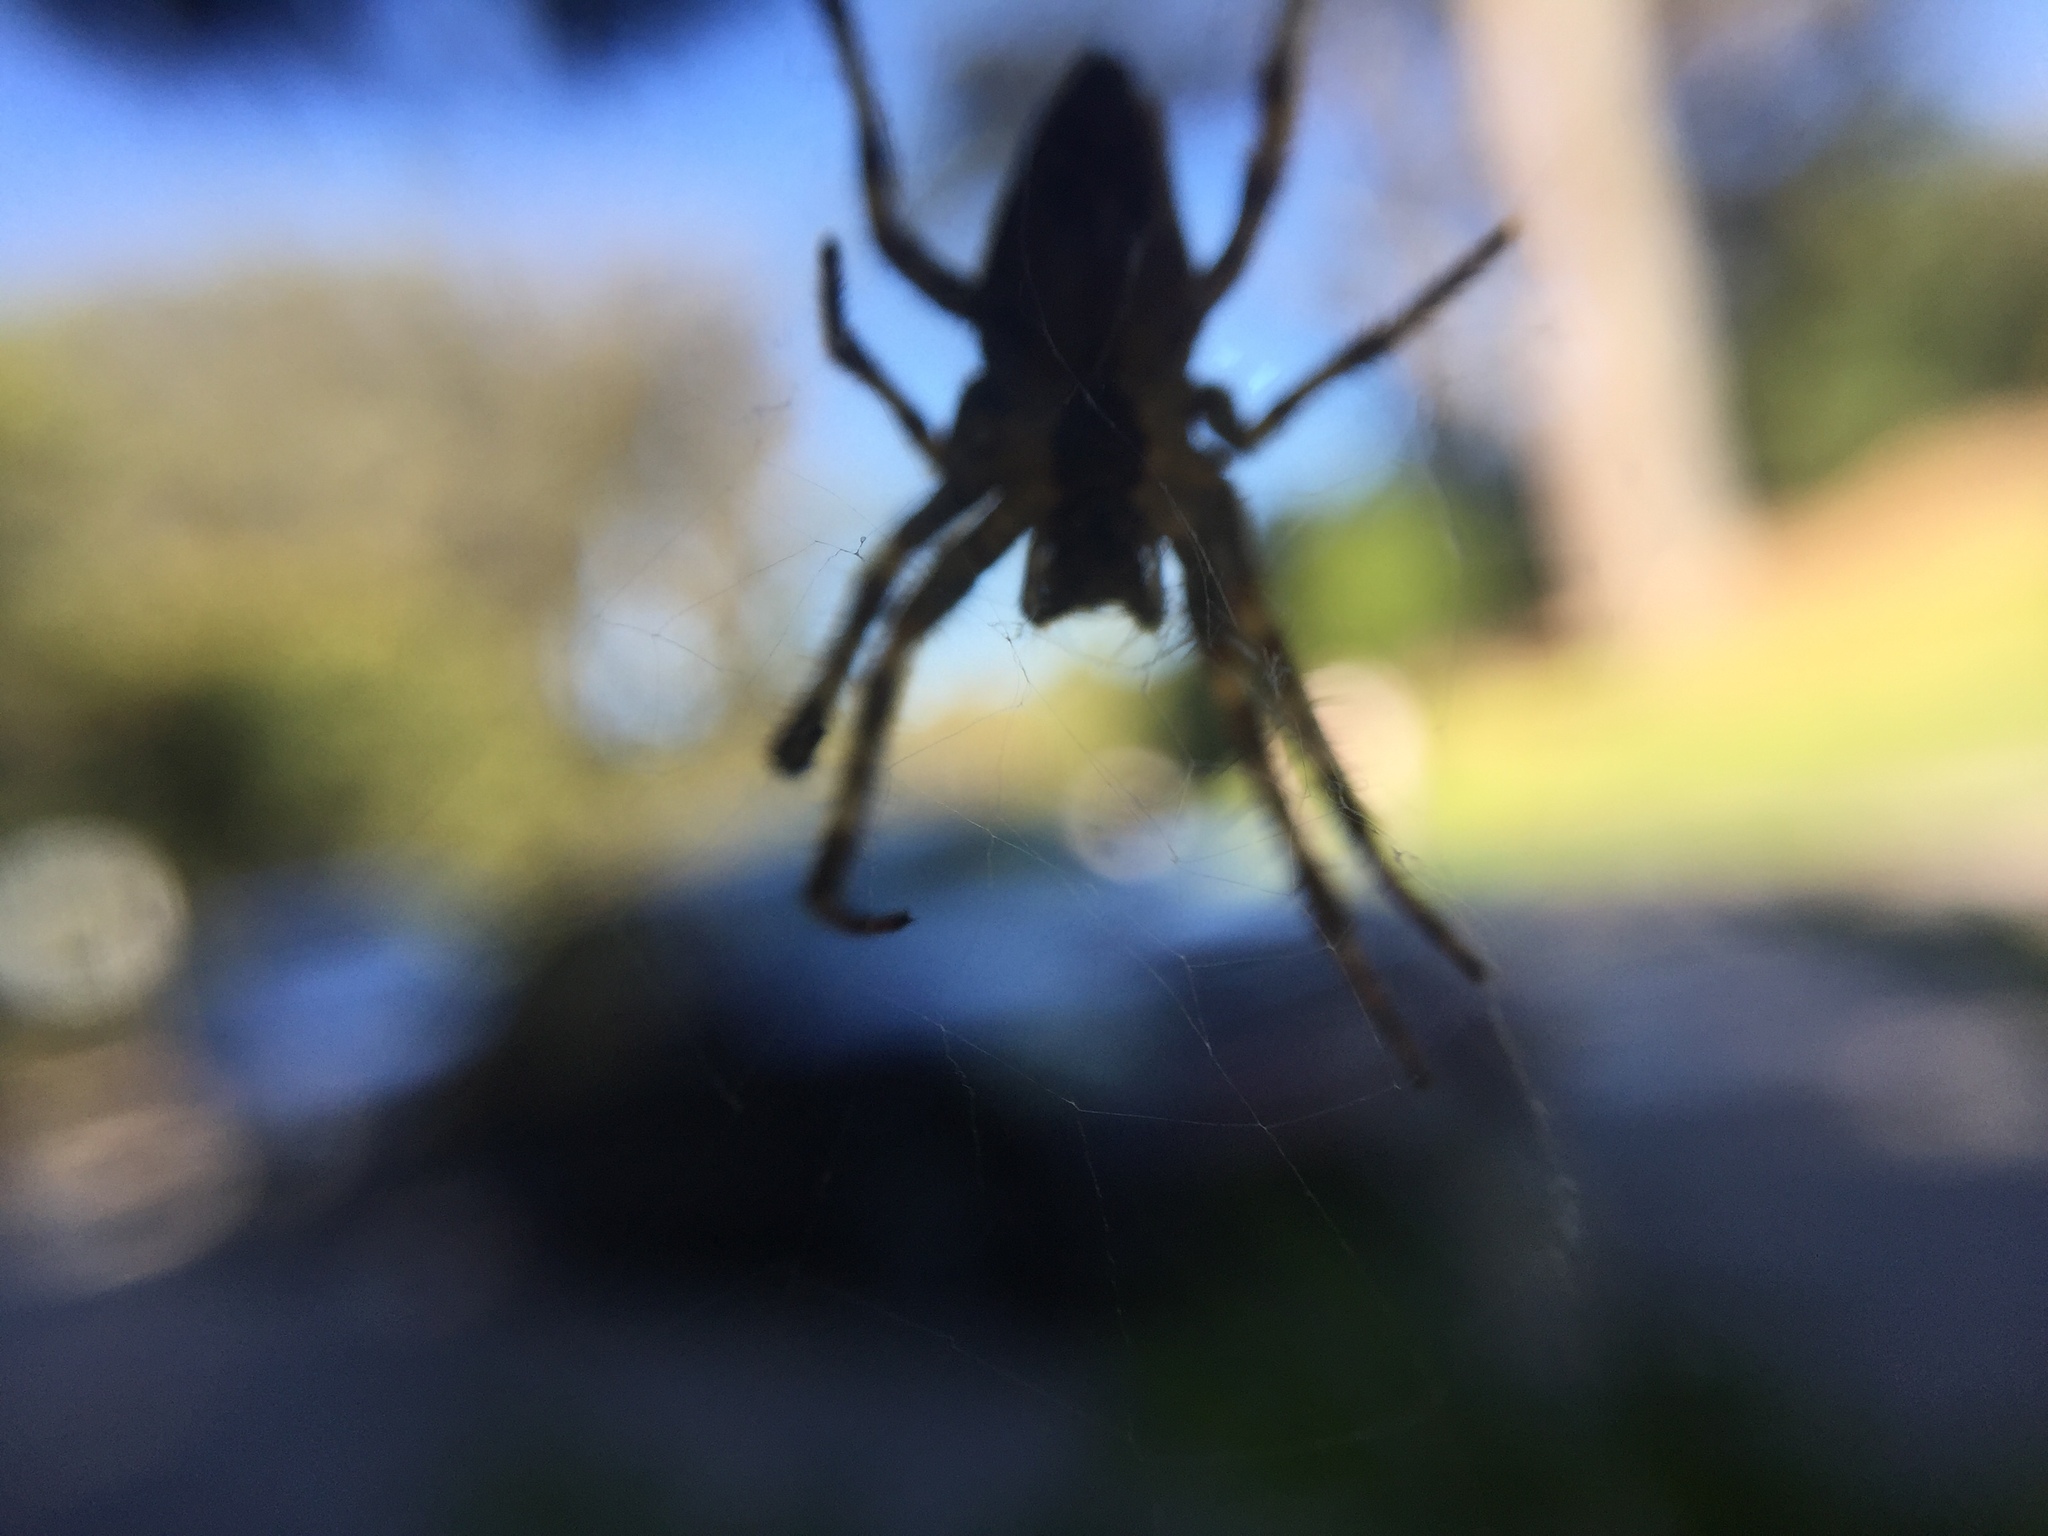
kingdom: Animalia
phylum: Arthropoda
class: Arachnida
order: Araneae
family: Araneidae
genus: Araneus
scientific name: Araneus diadematus
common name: Cross orbweaver
